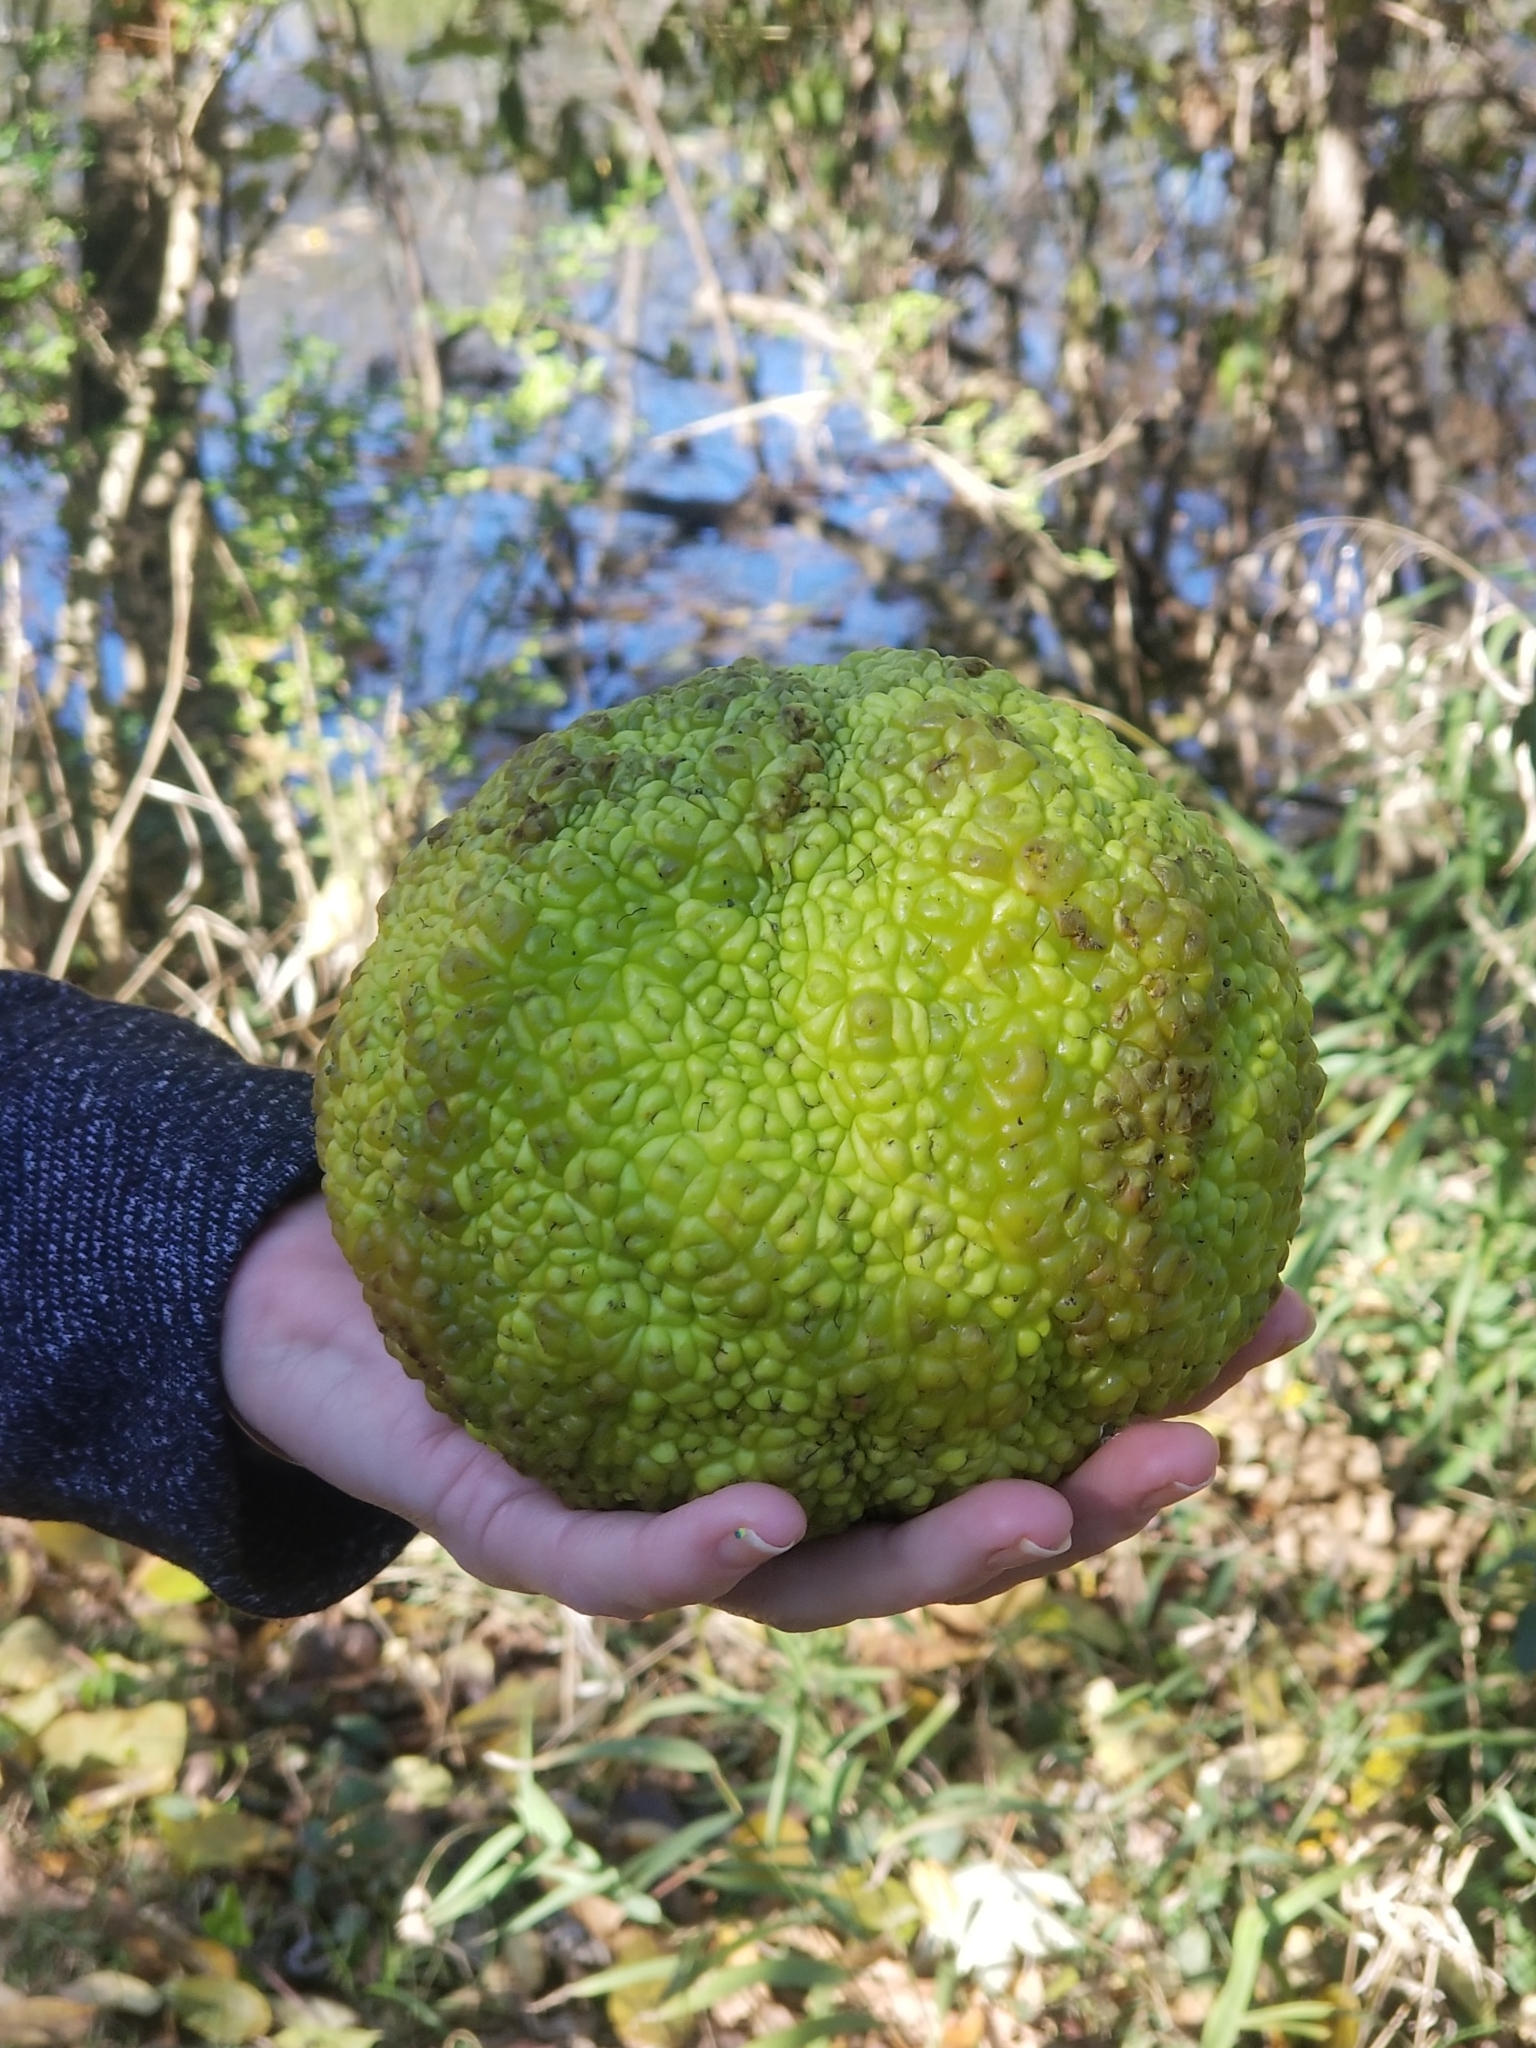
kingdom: Plantae
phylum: Tracheophyta
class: Magnoliopsida
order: Rosales
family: Moraceae
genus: Maclura
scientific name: Maclura pomifera
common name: Osage-orange
